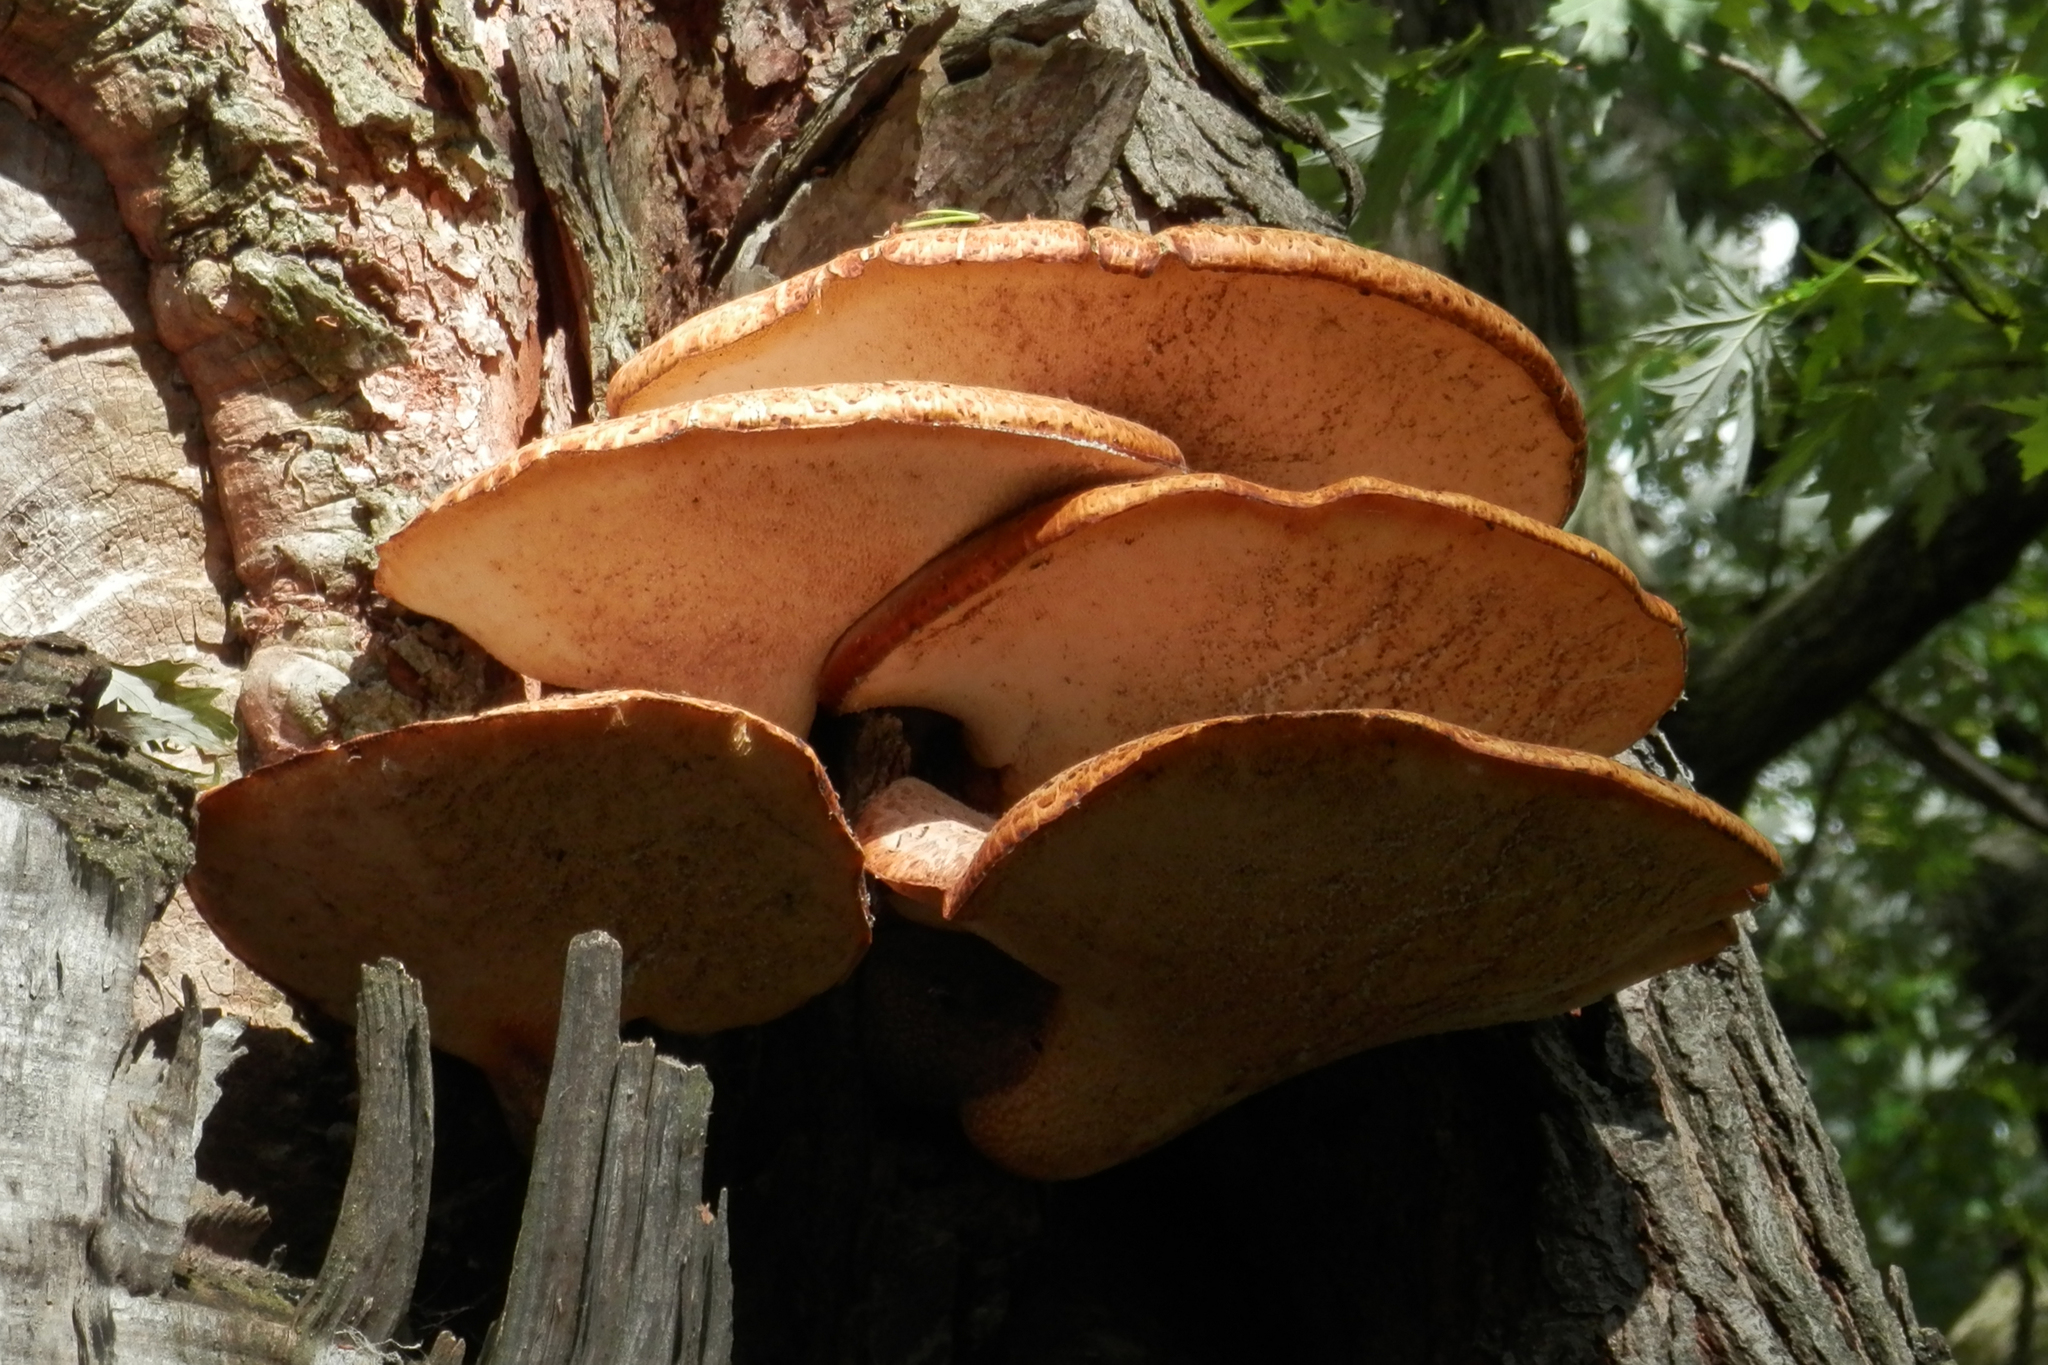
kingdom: Fungi
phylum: Basidiomycota
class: Agaricomycetes
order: Polyporales
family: Polyporaceae
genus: Cerioporus
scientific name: Cerioporus squamosus
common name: Dryad's saddle
